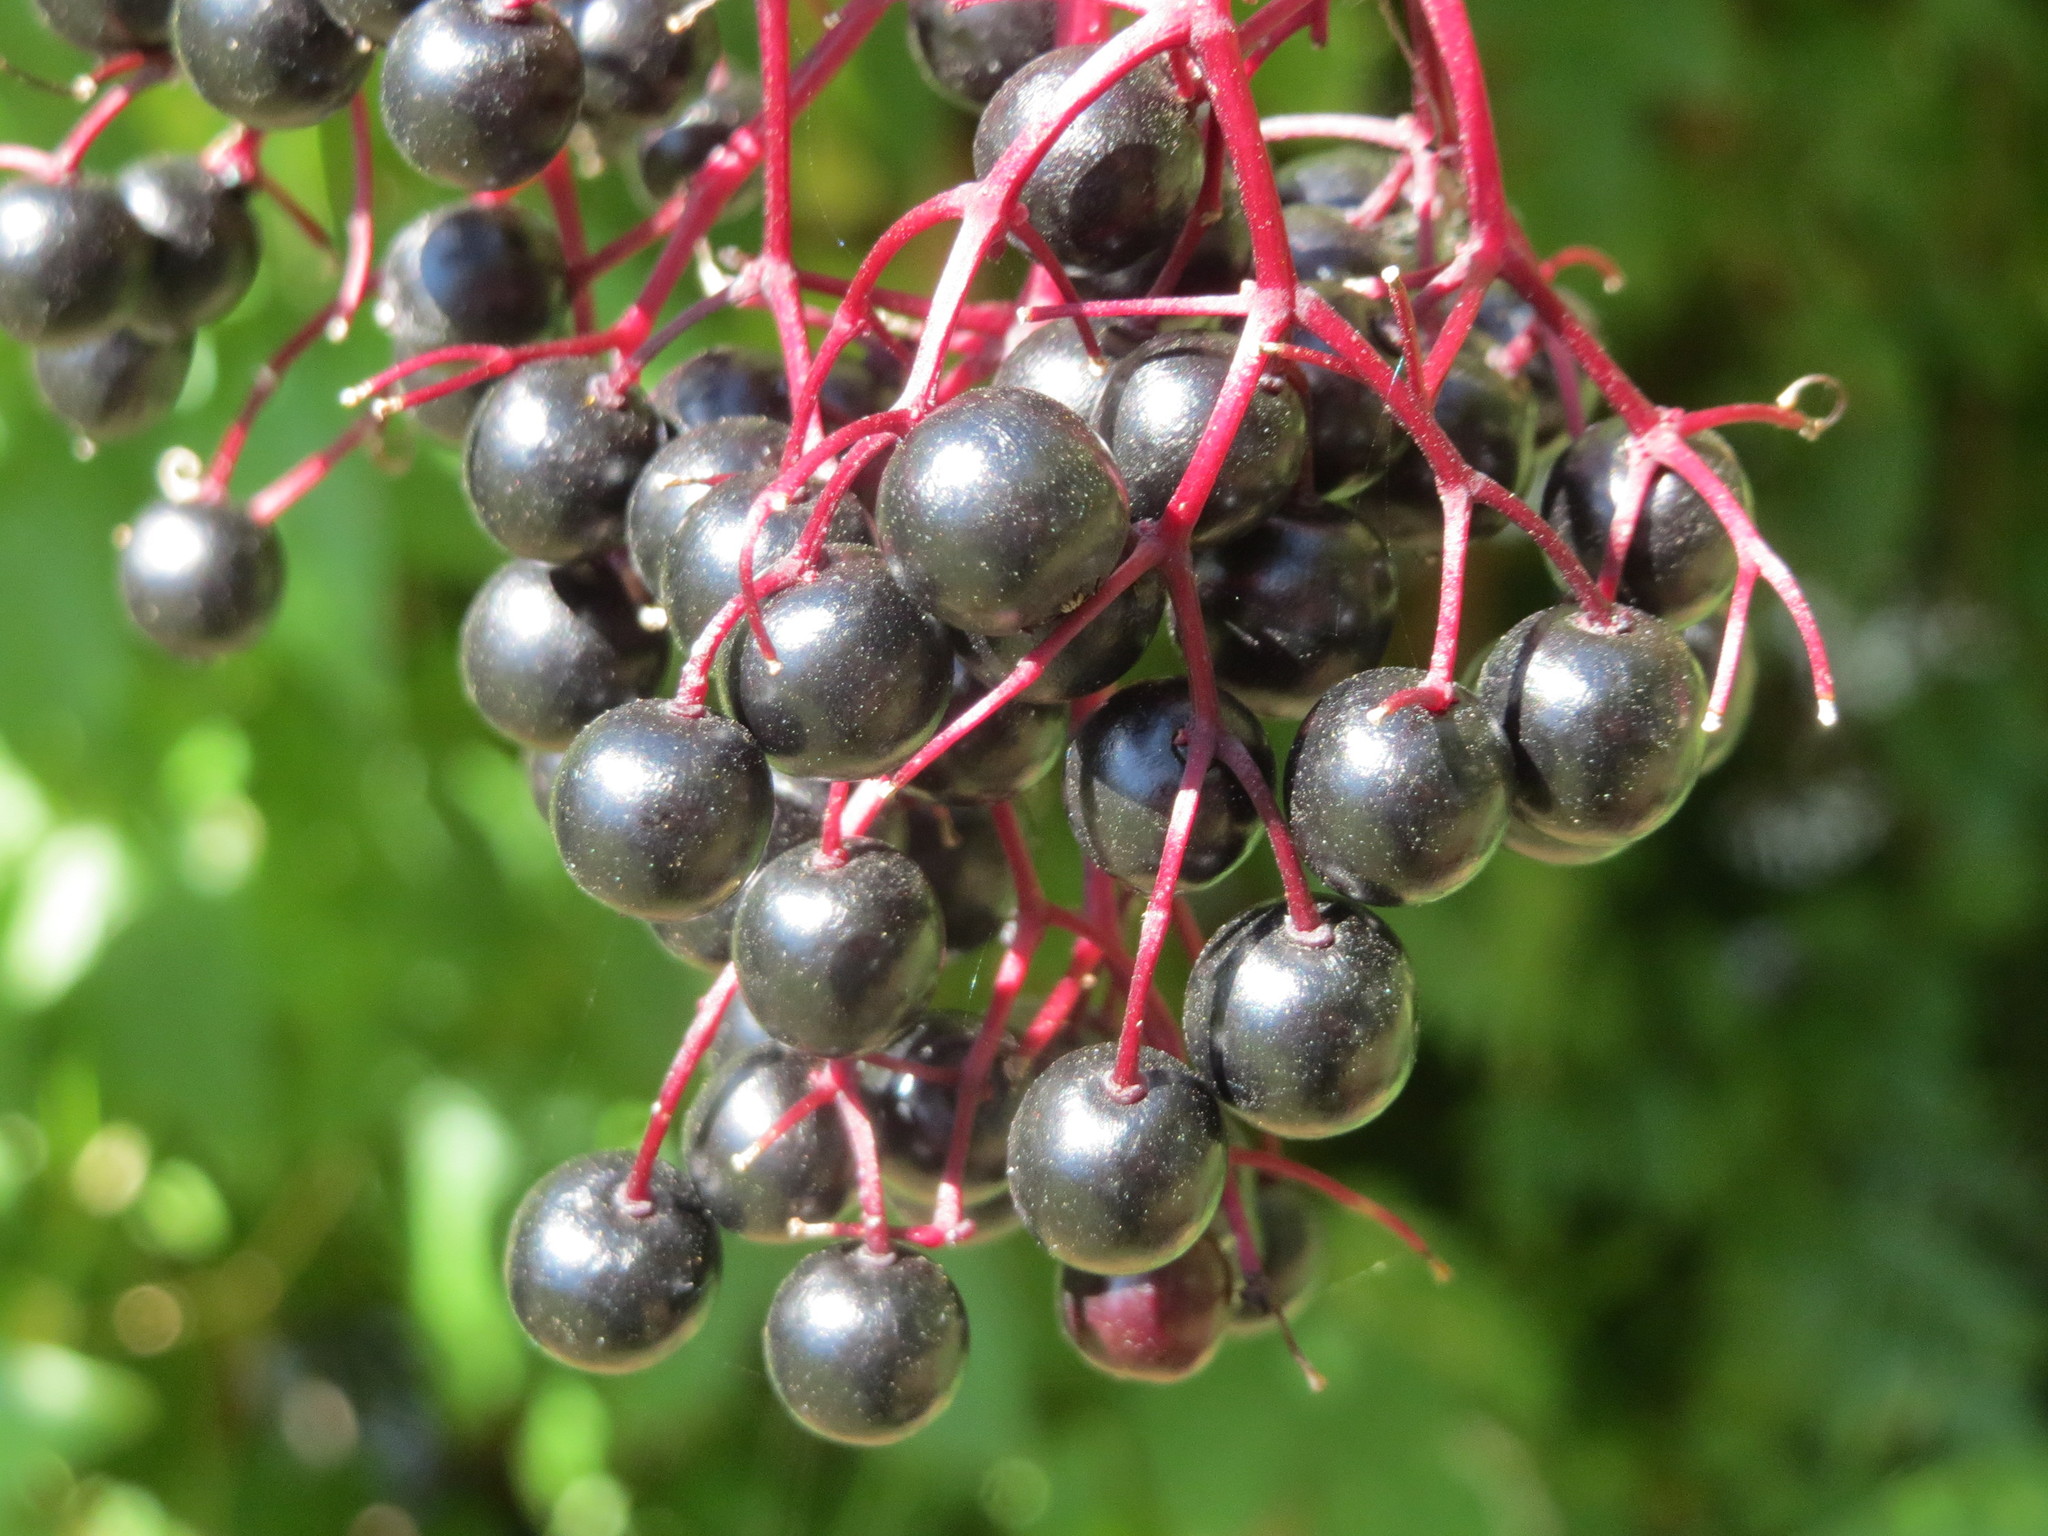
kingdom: Plantae
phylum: Tracheophyta
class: Magnoliopsida
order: Dipsacales
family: Viburnaceae
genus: Sambucus
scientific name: Sambucus nigra
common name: Elder
